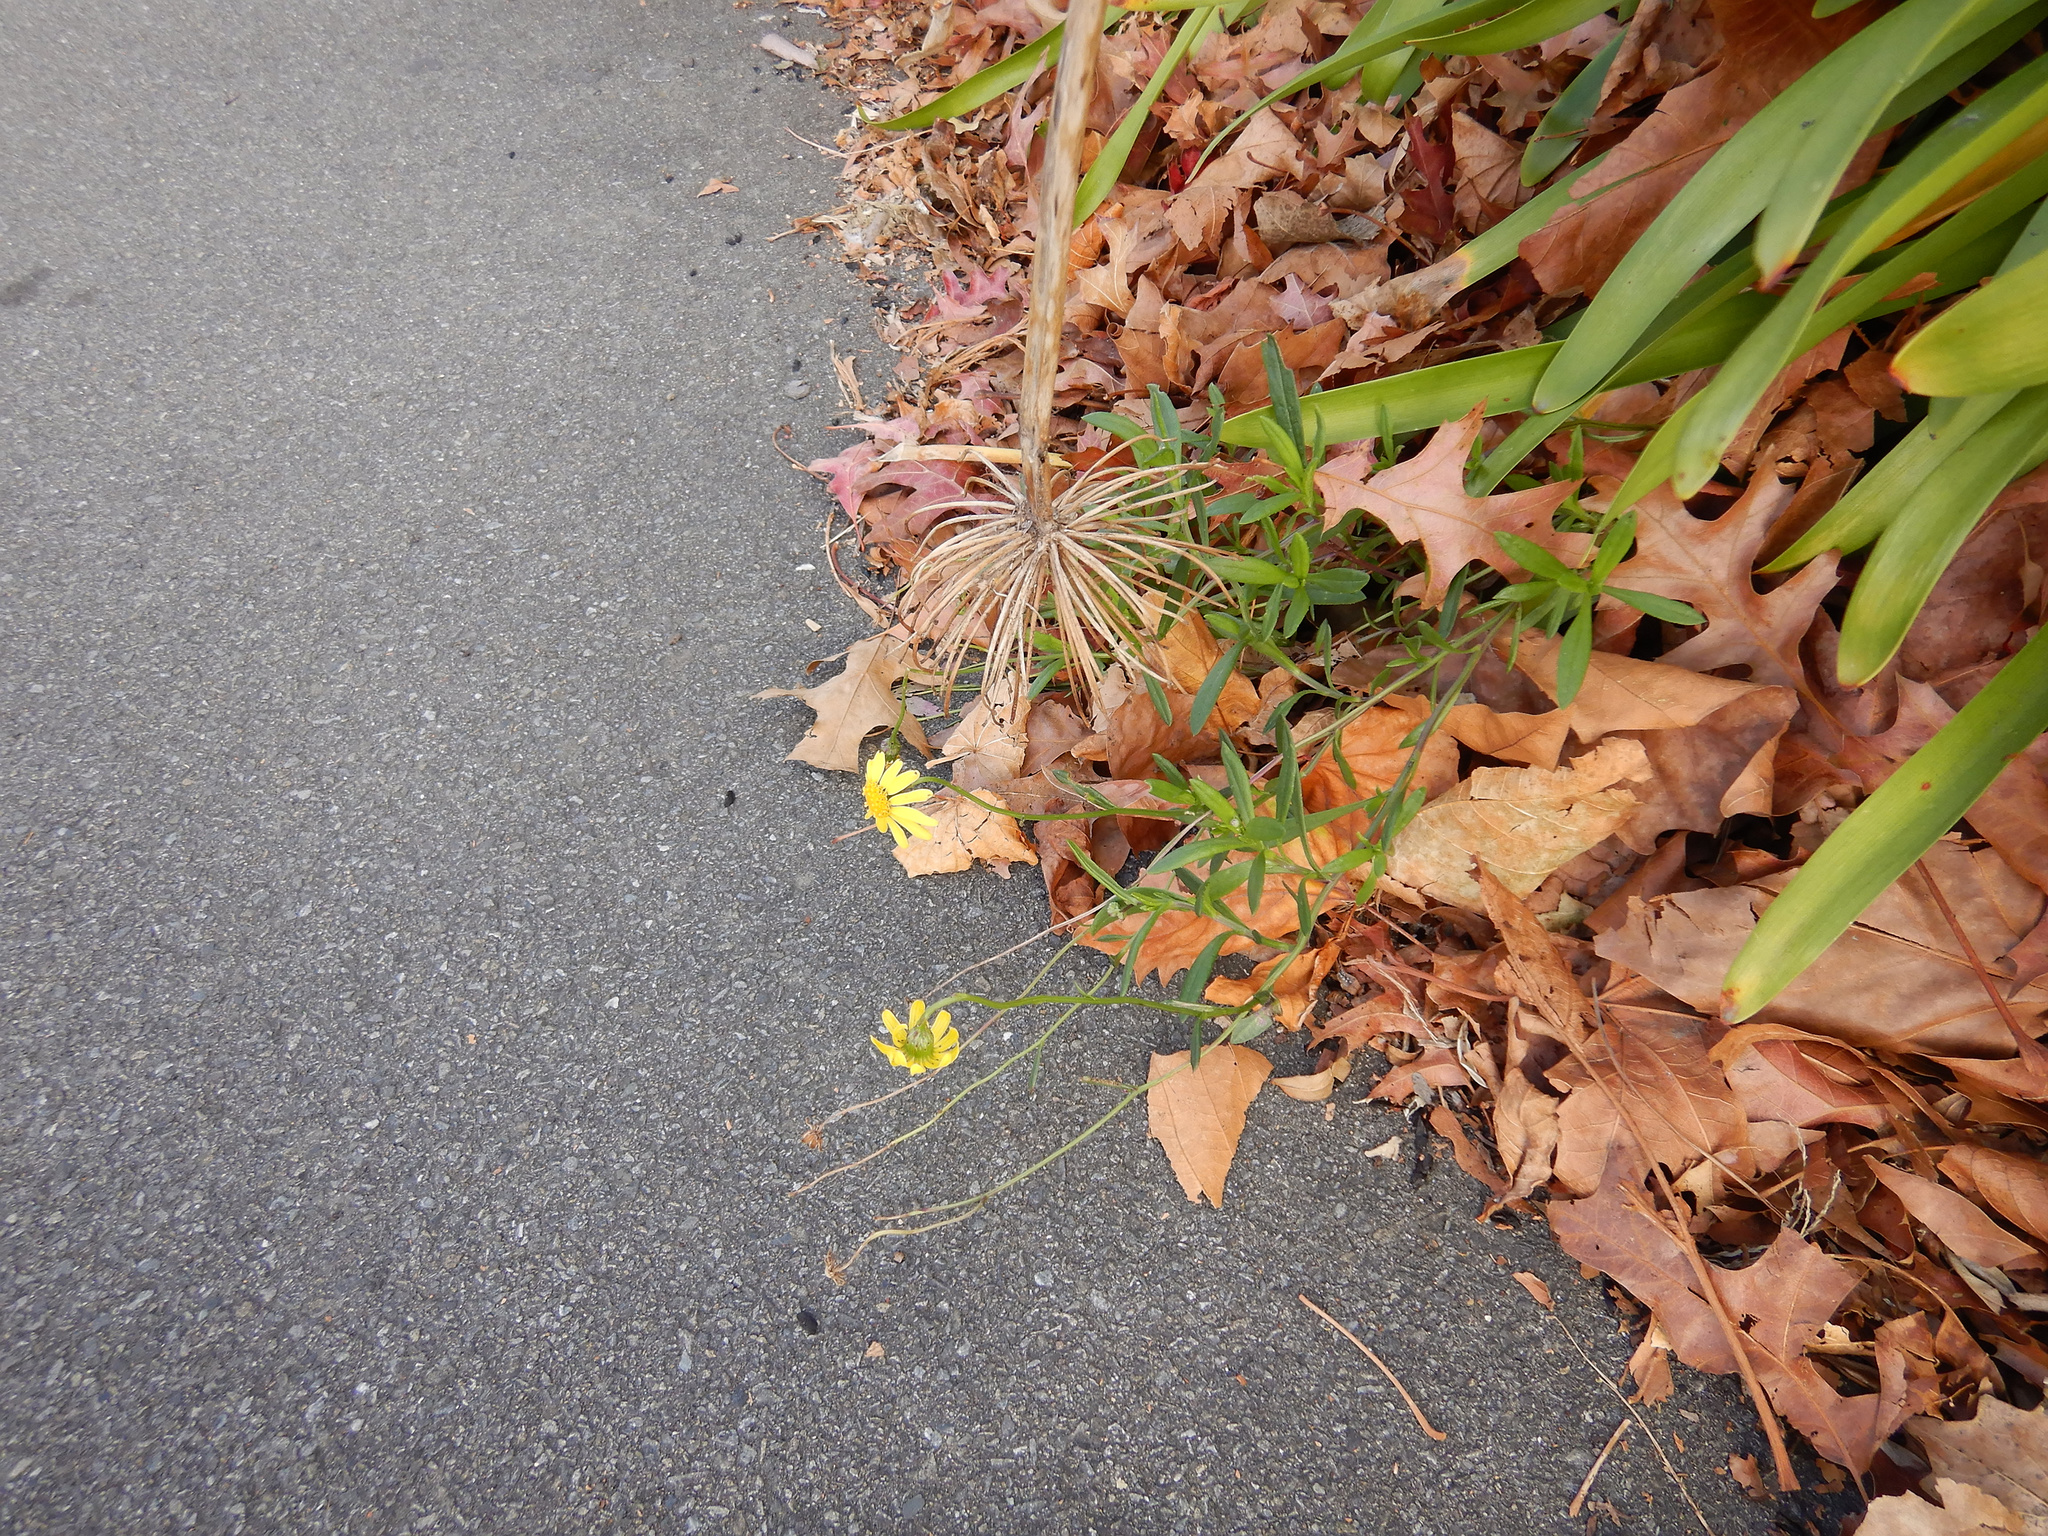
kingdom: Plantae
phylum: Tracheophyta
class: Magnoliopsida
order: Asterales
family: Asteraceae
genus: Senecio
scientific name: Senecio skirrhodon
